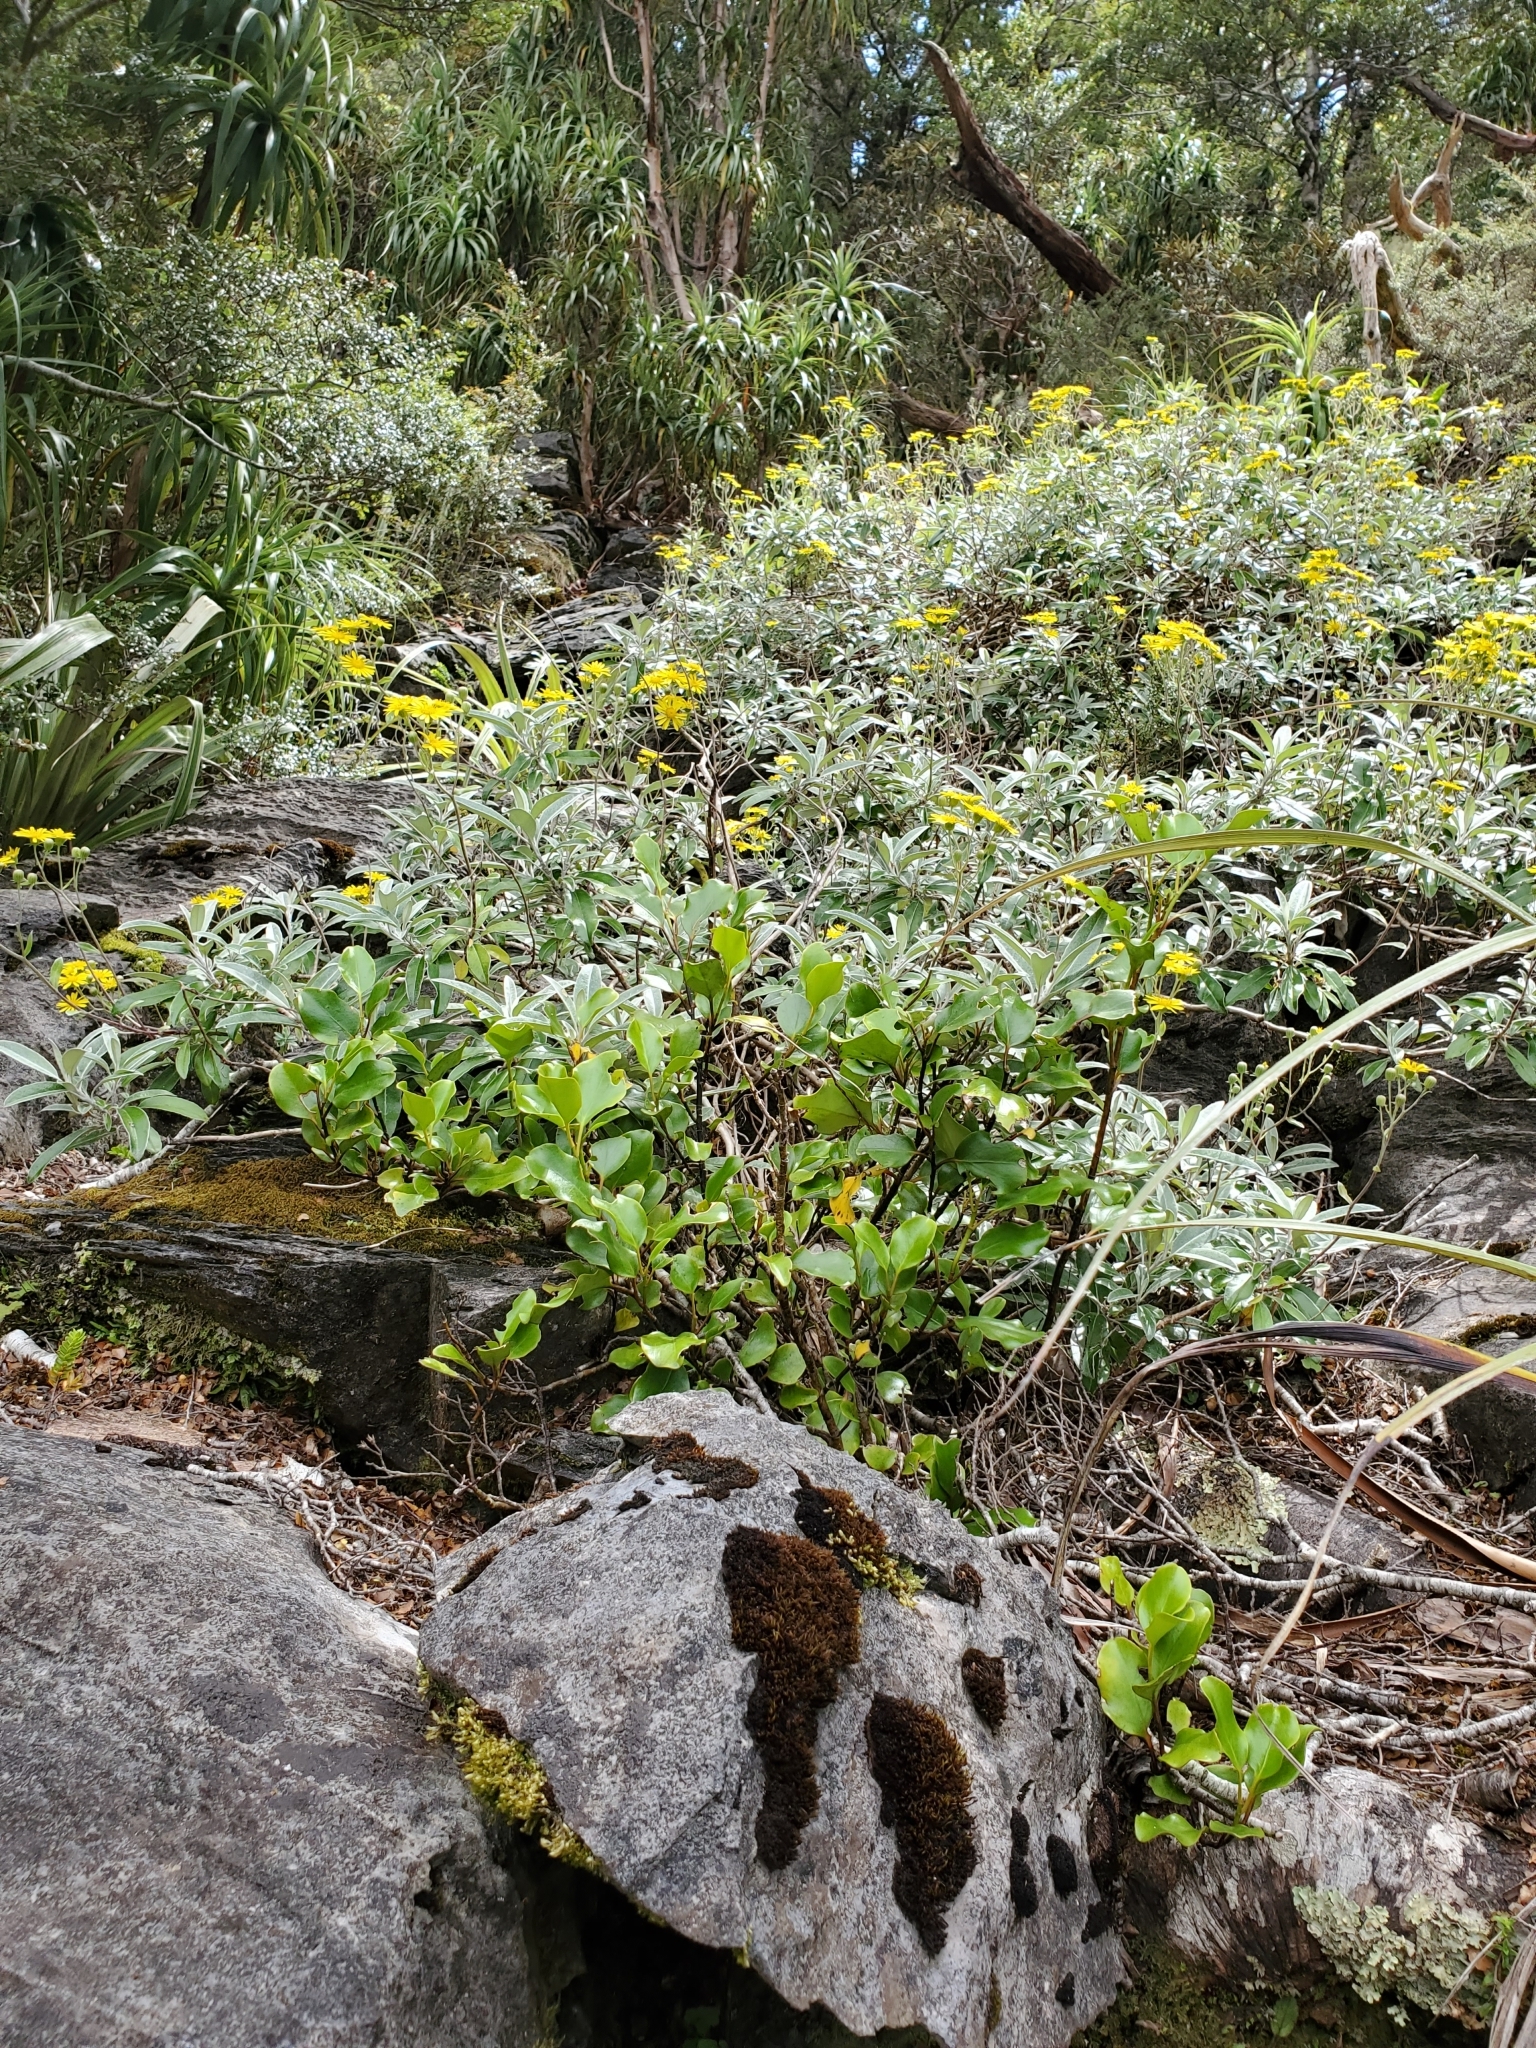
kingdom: Plantae
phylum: Tracheophyta
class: Magnoliopsida
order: Asterales
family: Asteraceae
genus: Brachyglottis
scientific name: Brachyglottis laxifolia
